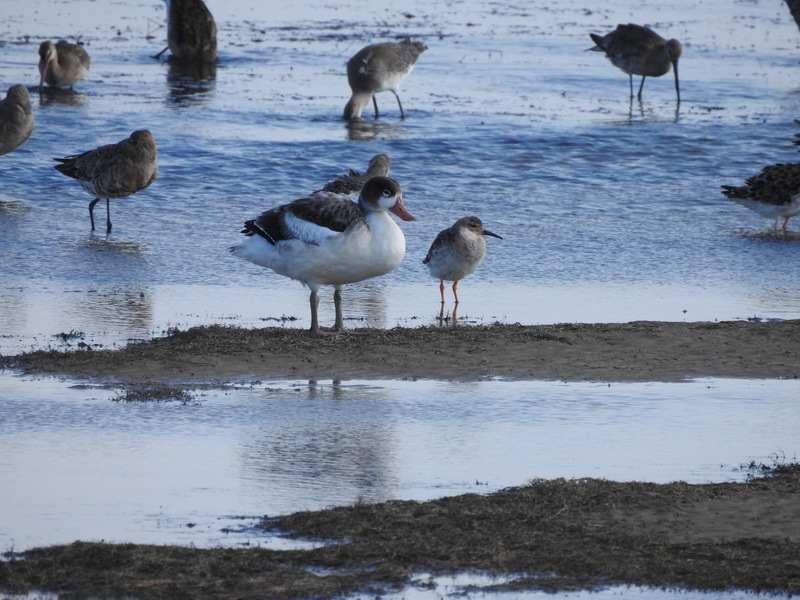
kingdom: Animalia
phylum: Chordata
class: Aves
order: Charadriiformes
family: Scolopacidae
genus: Calidris
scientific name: Calidris pugnax
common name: Ruff
